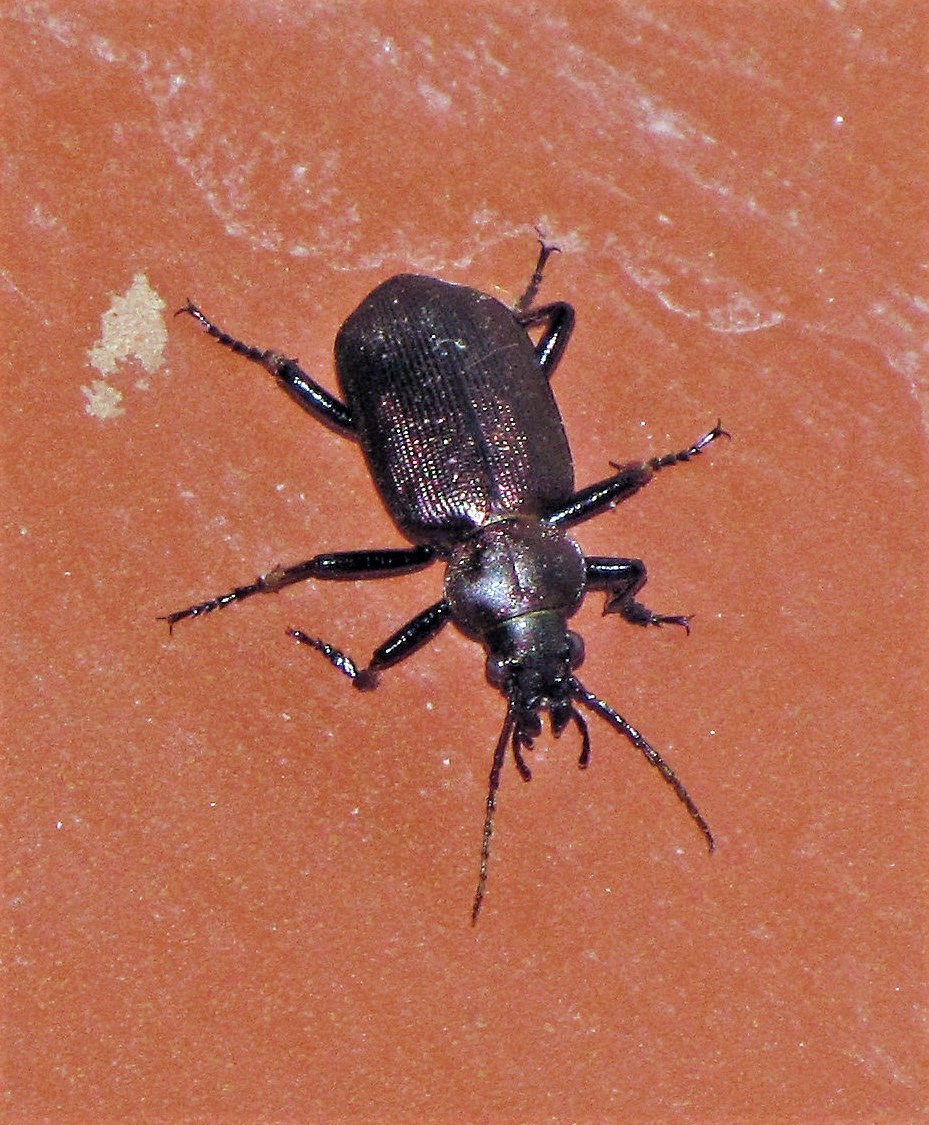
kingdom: Animalia
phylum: Arthropoda
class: Insecta
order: Coleoptera
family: Carabidae
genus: Calosoma
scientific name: Calosoma argentinense
